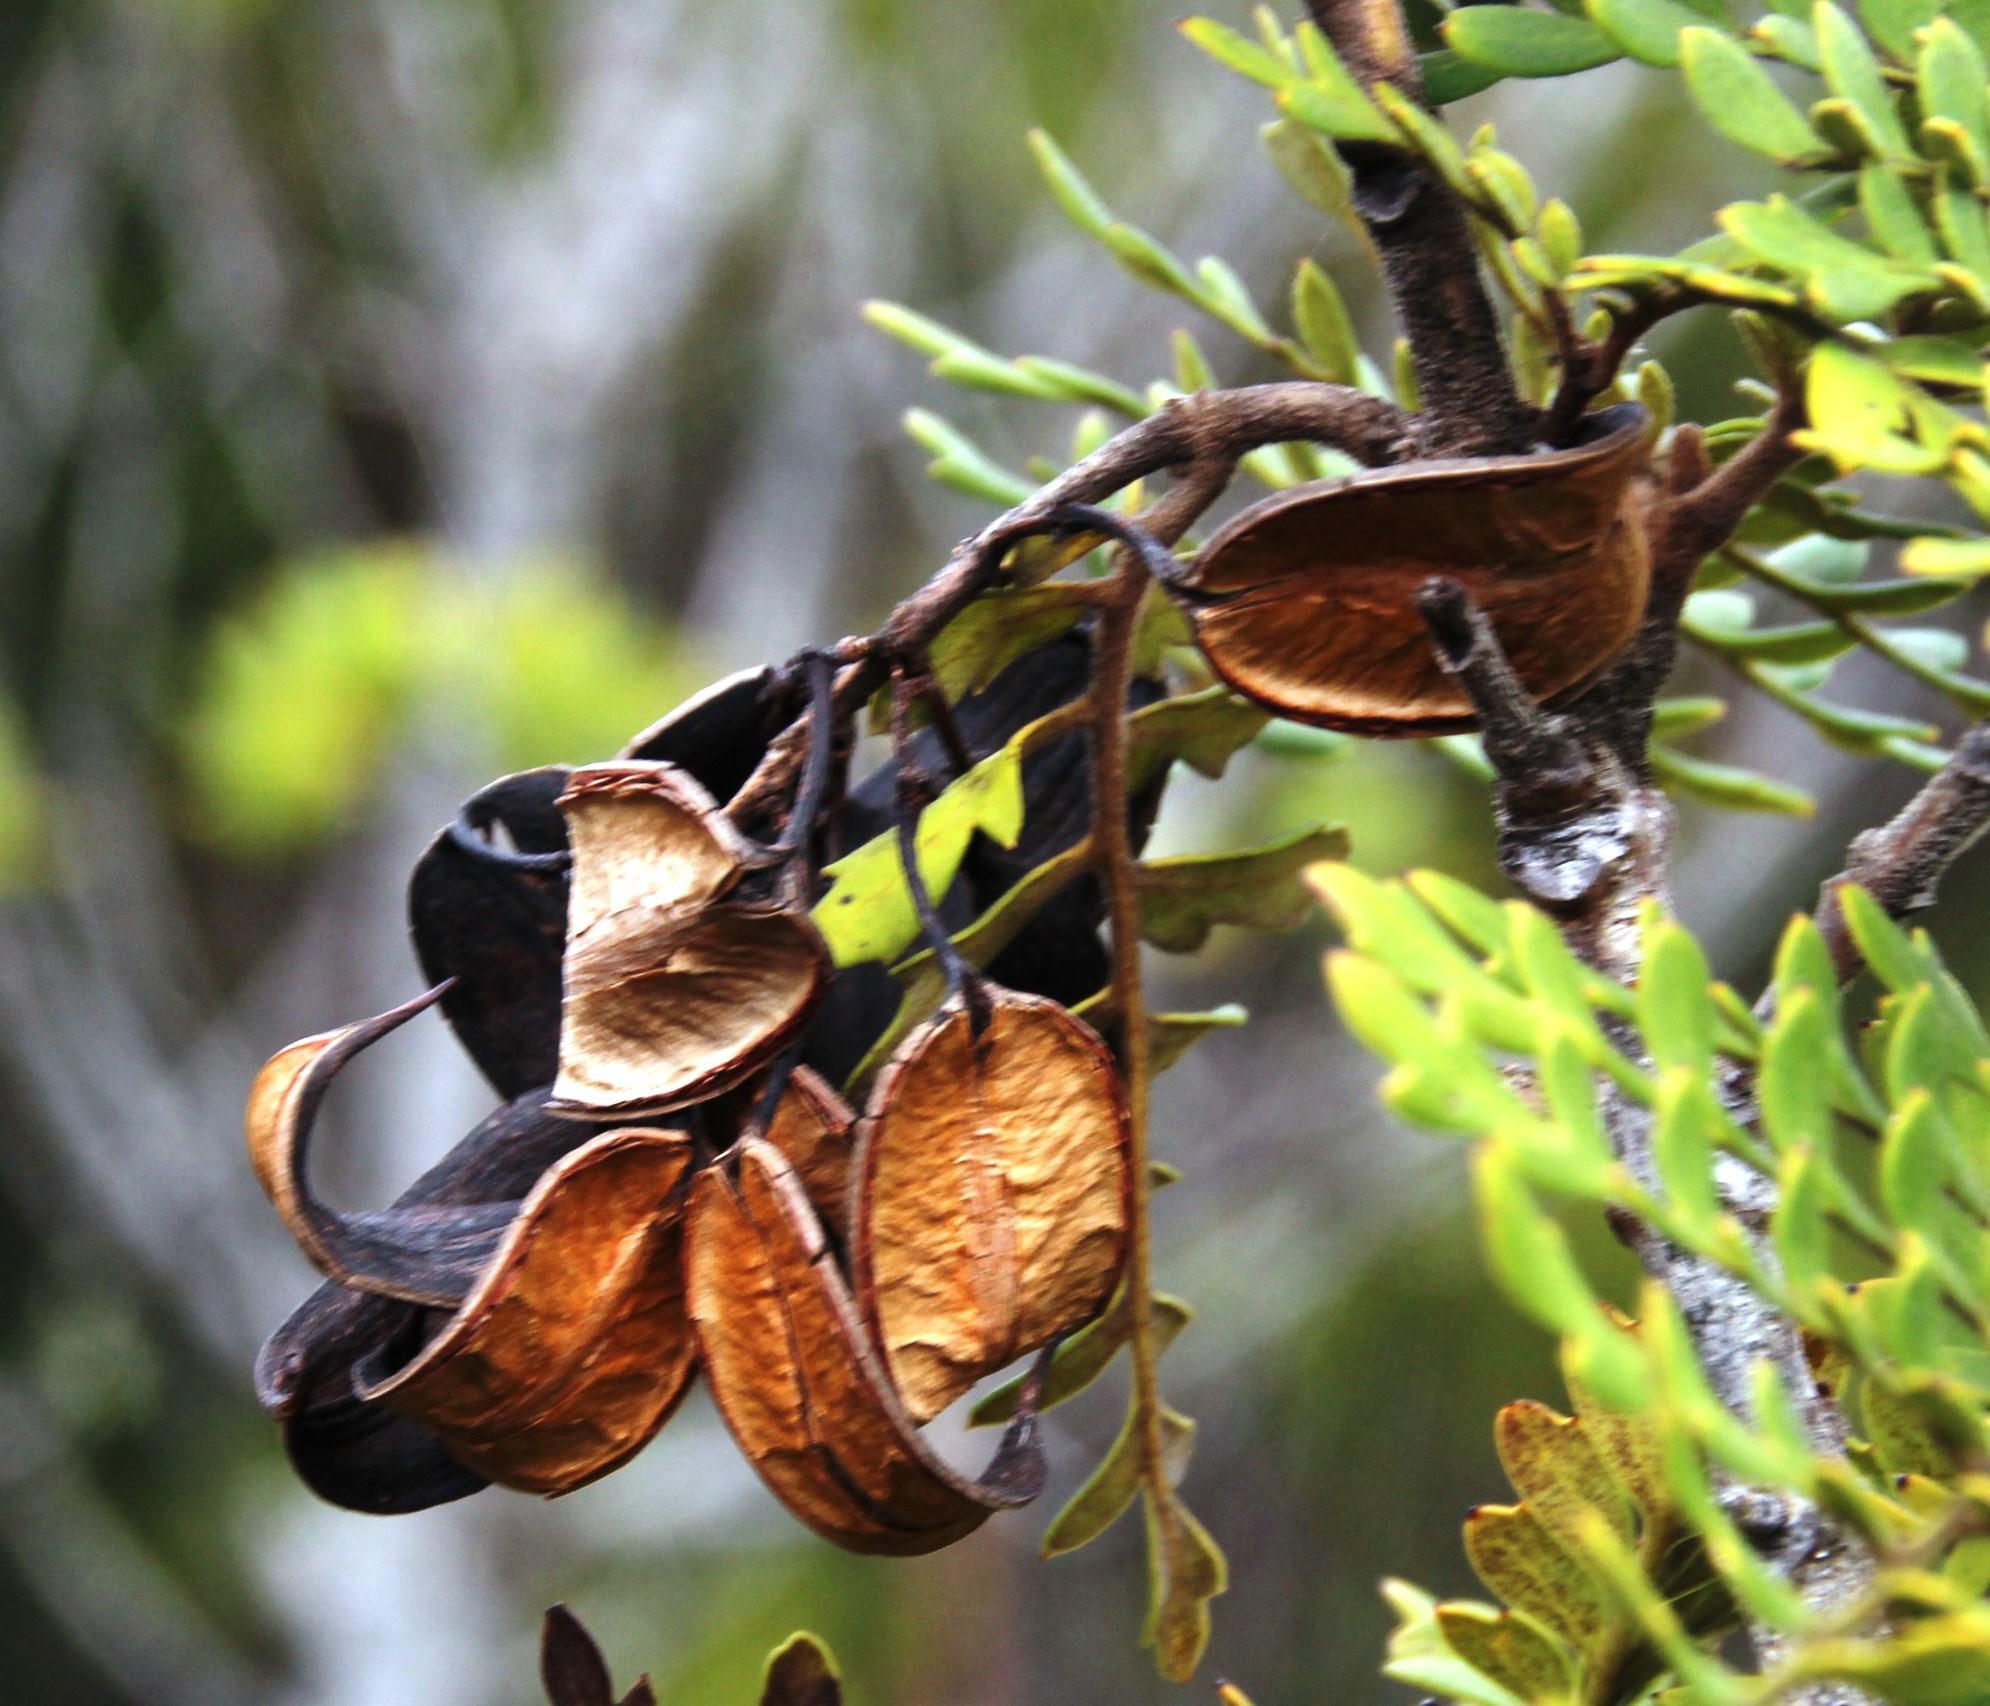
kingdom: Plantae
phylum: Tracheophyta
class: Magnoliopsida
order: Proteales
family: Proteaceae
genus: Lomatia
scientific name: Lomatia ferruginea
